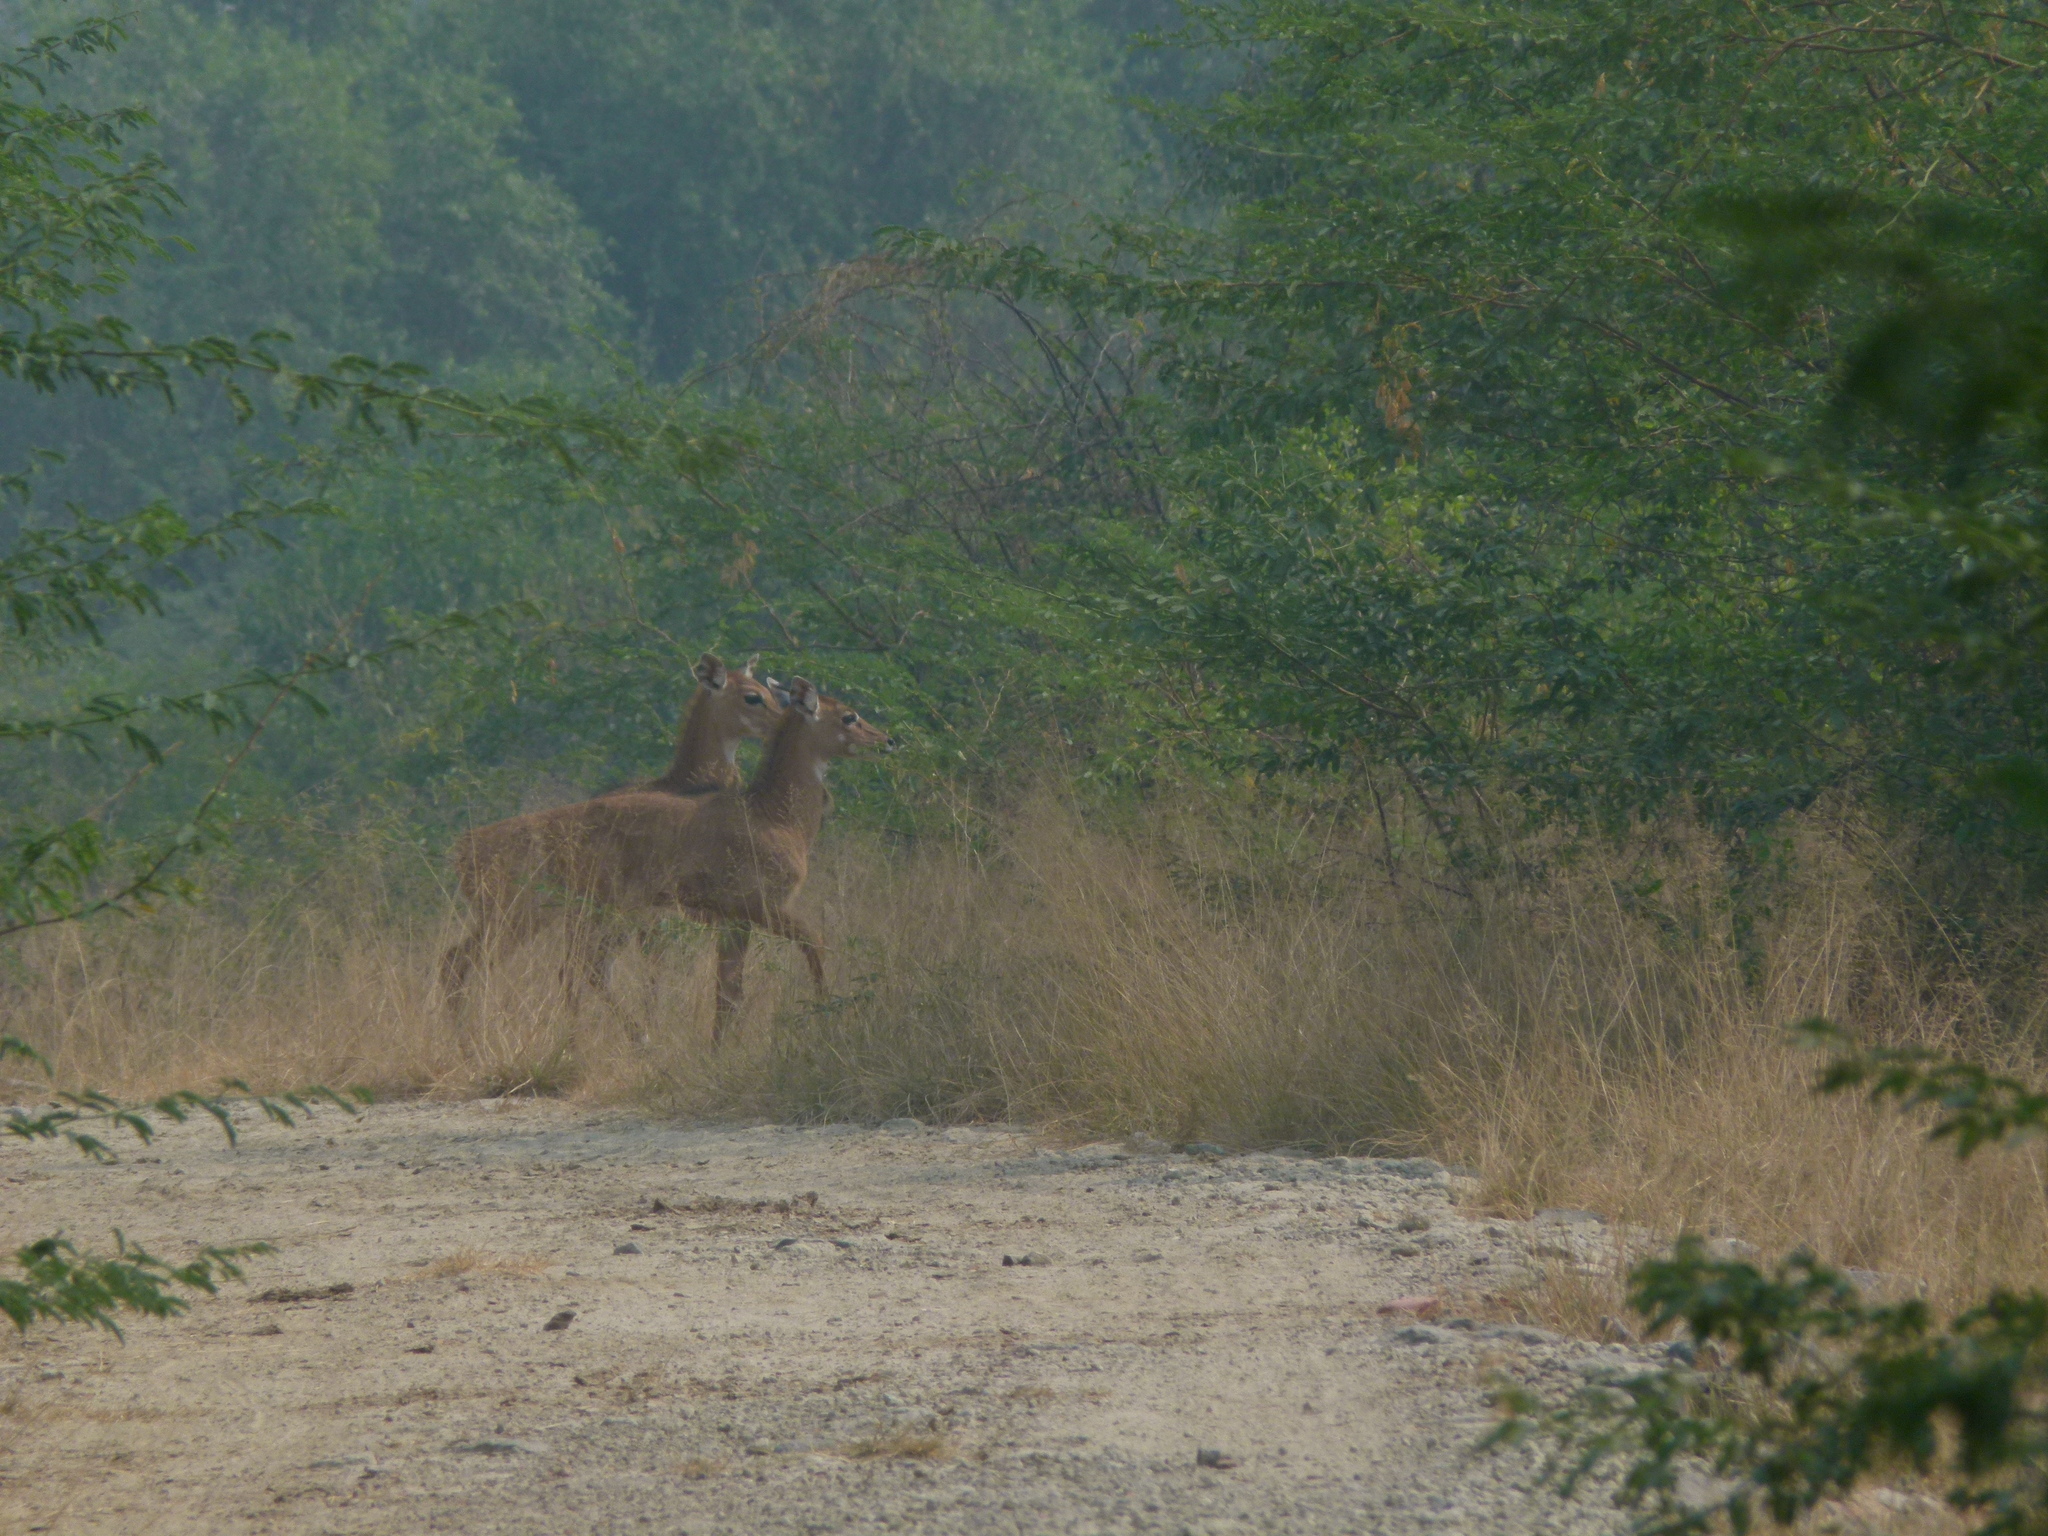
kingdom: Animalia
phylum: Chordata
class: Mammalia
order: Artiodactyla
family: Bovidae
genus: Boselaphus
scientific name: Boselaphus tragocamelus
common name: Nilgai
